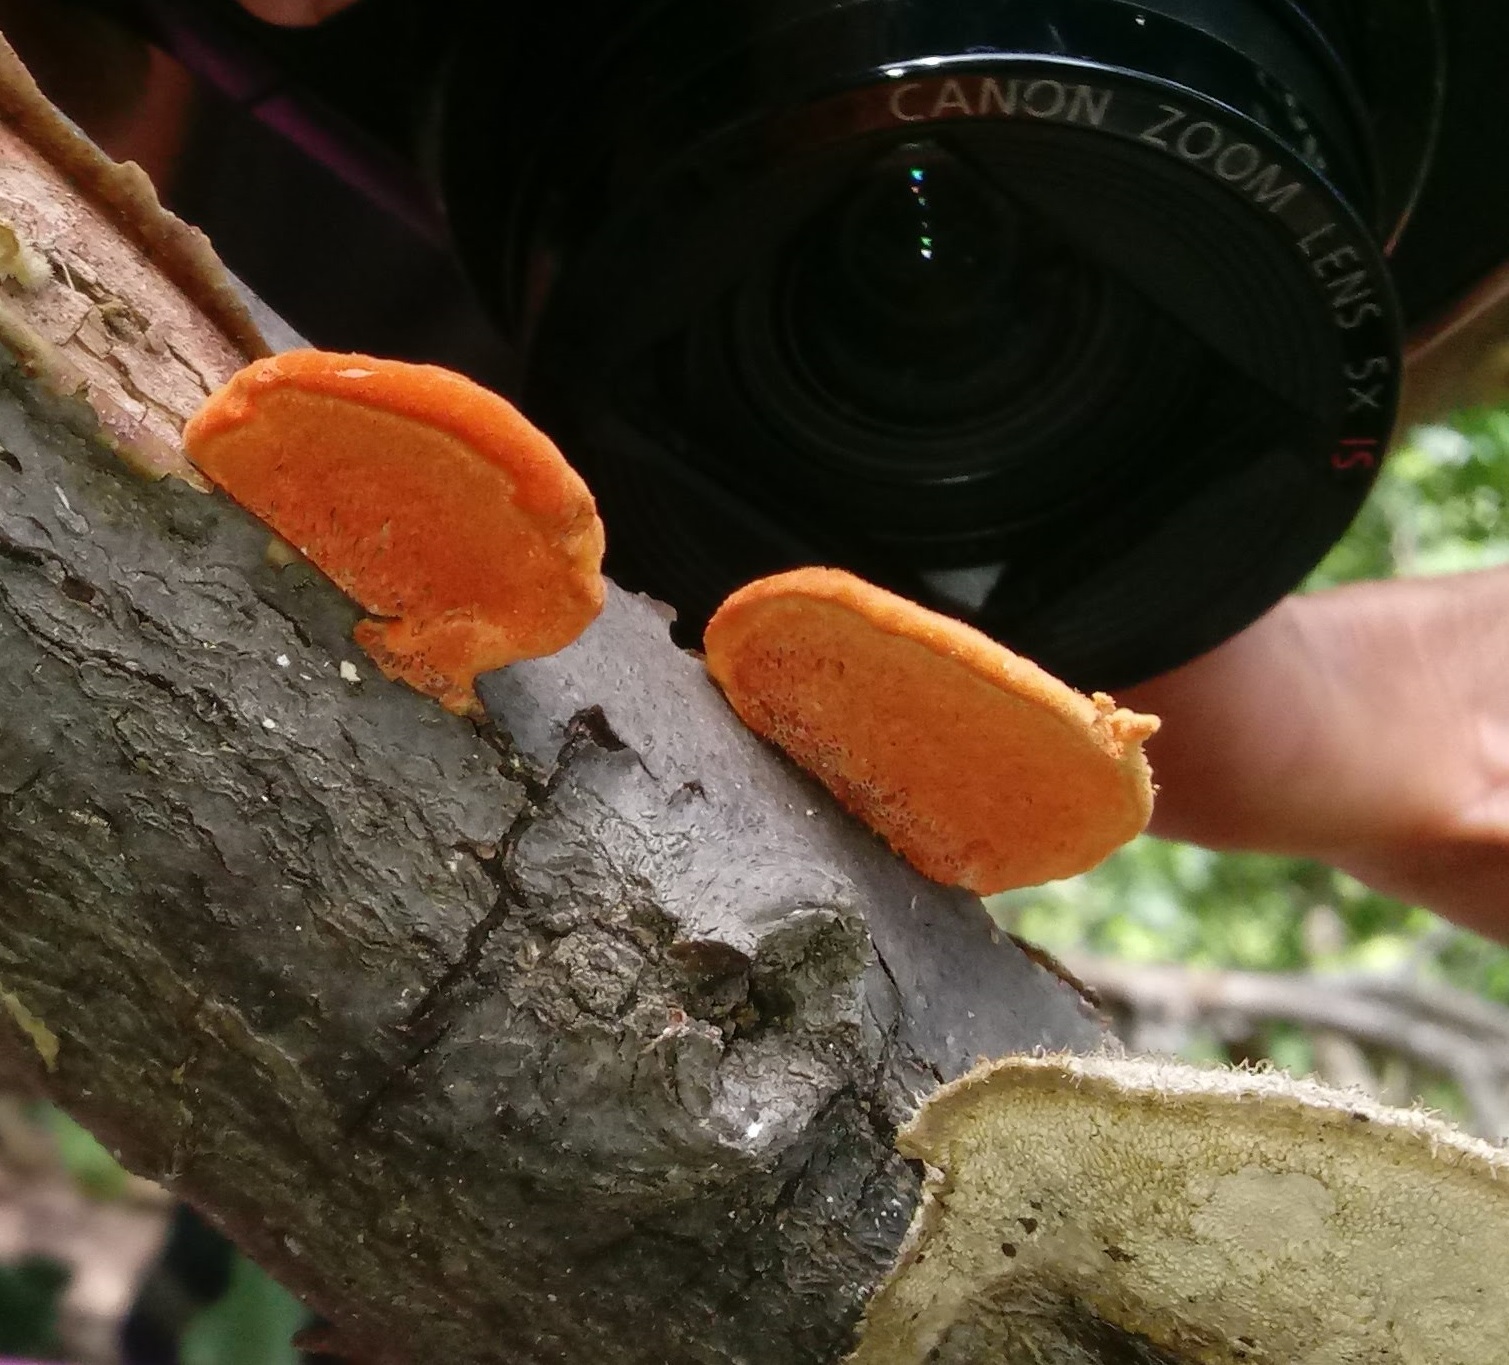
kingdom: Fungi
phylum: Basidiomycota
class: Agaricomycetes
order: Polyporales
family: Polyporaceae
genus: Trametes
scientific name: Trametes cinnabarina
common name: Northern cinnabar polypore
